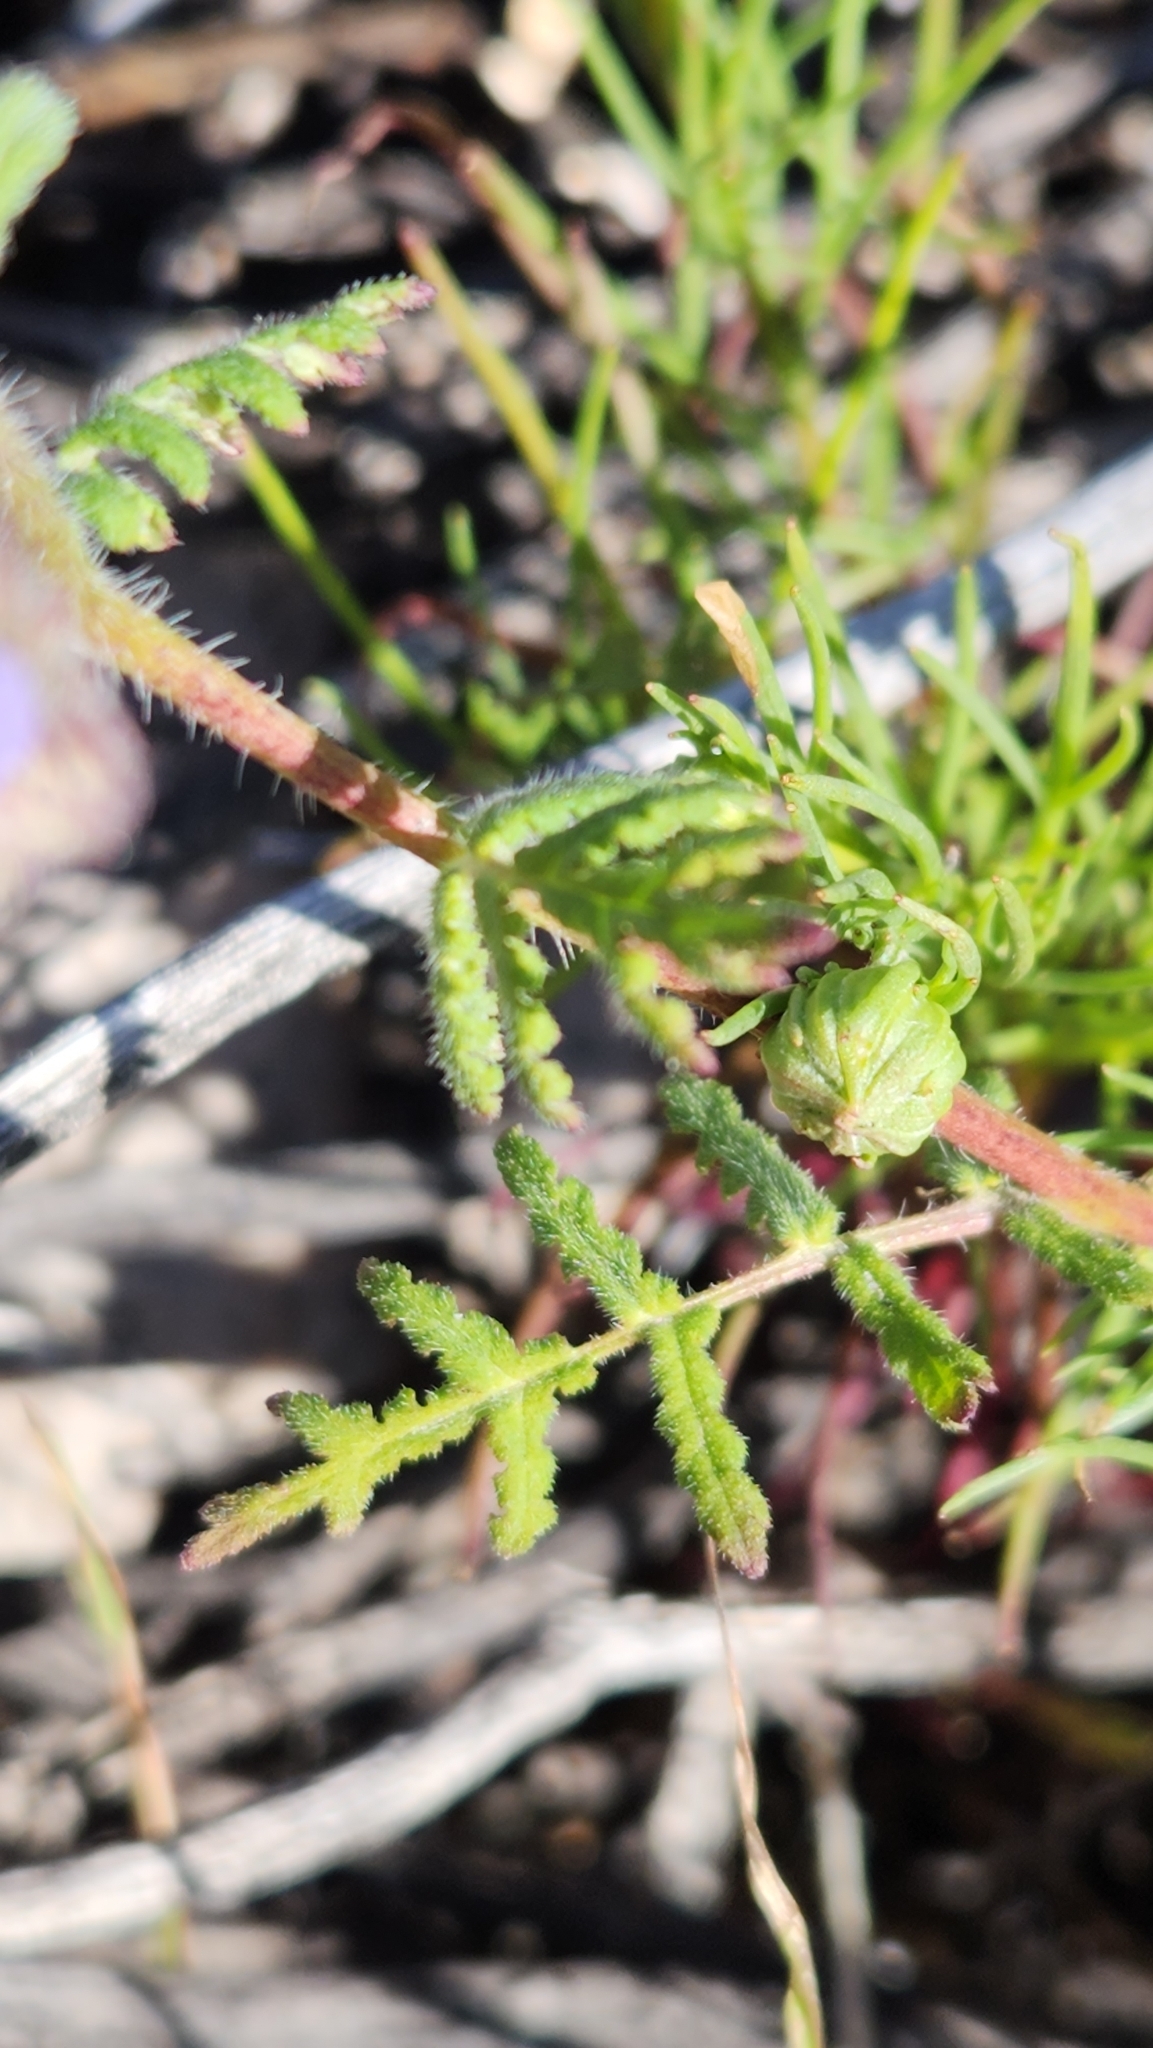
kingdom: Plantae
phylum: Tracheophyta
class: Magnoliopsida
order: Boraginales
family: Hydrophyllaceae
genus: Phacelia
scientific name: Phacelia distans
